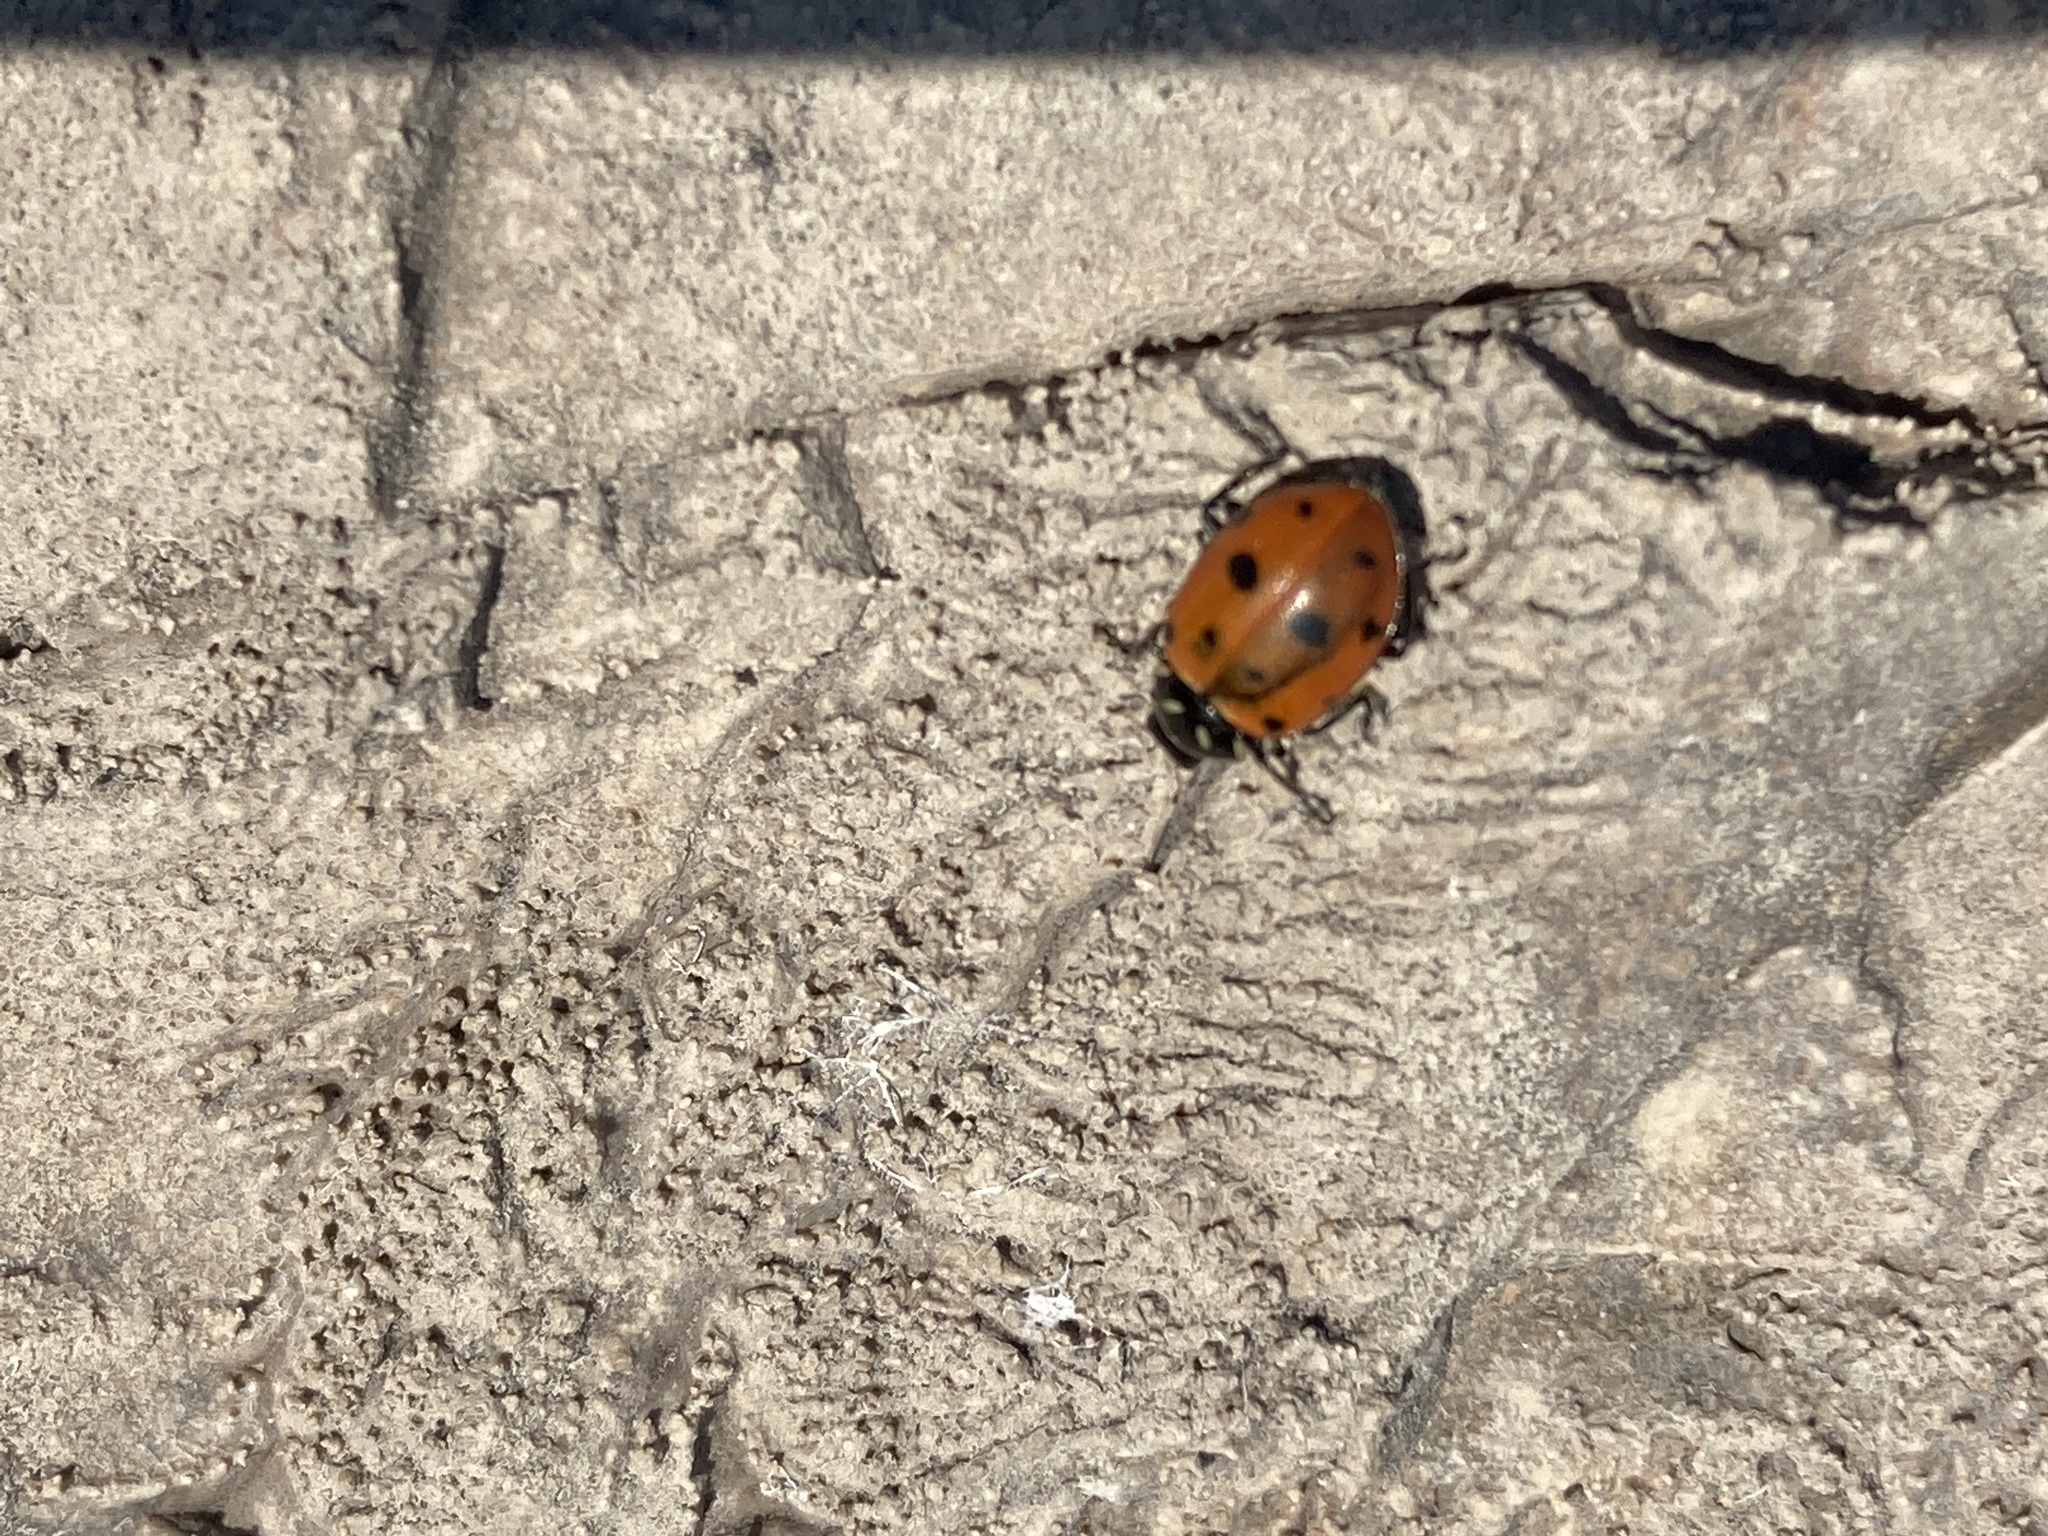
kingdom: Animalia
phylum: Arthropoda
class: Insecta
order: Coleoptera
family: Coccinellidae
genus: Hippodamia
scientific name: Hippodamia convergens
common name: Convergent lady beetle
